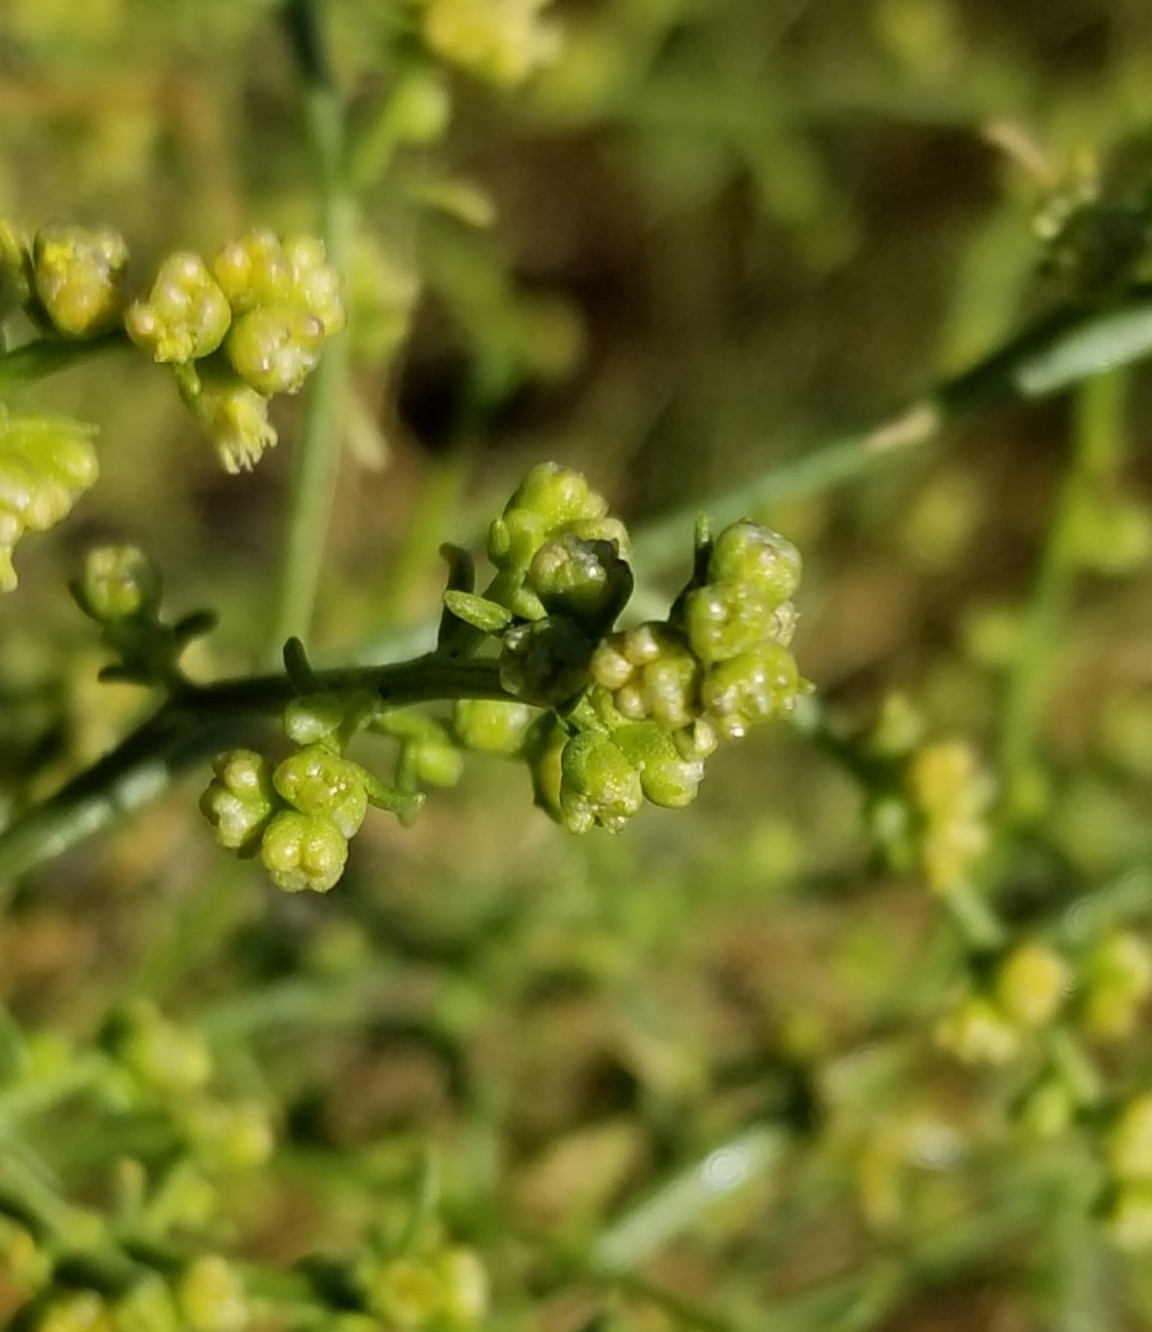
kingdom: Plantae
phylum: Tracheophyta
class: Magnoliopsida
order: Asterales
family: Asteraceae
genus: Ambrosia
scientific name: Ambrosia salsola
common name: Burrobrush
